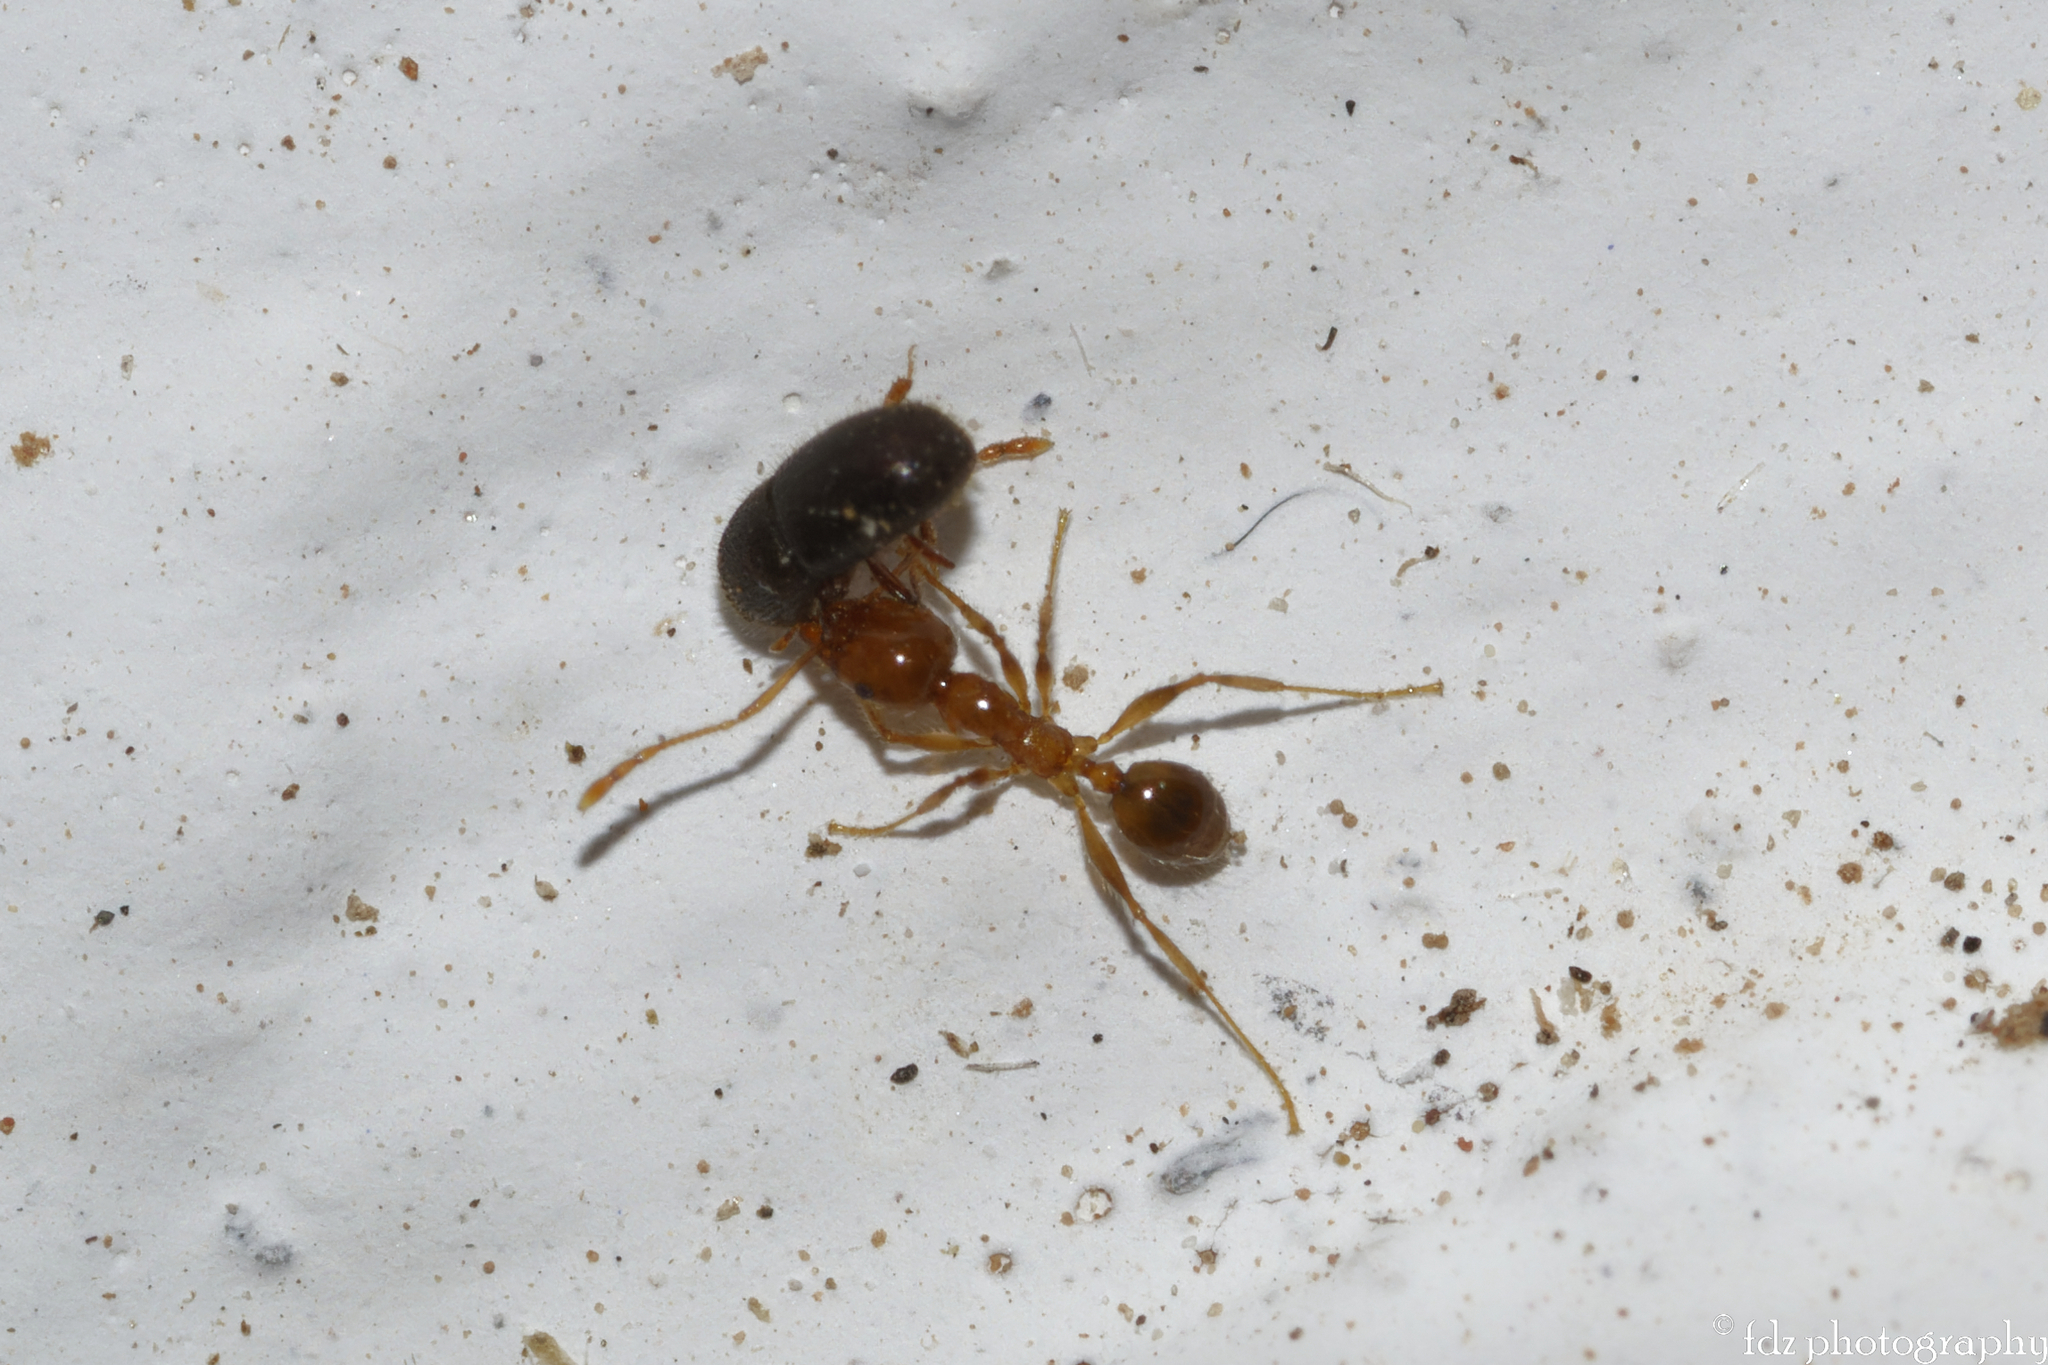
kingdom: Animalia
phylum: Arthropoda
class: Insecta
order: Hymenoptera
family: Formicidae
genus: Pheidole
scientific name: Pheidole pallidula
